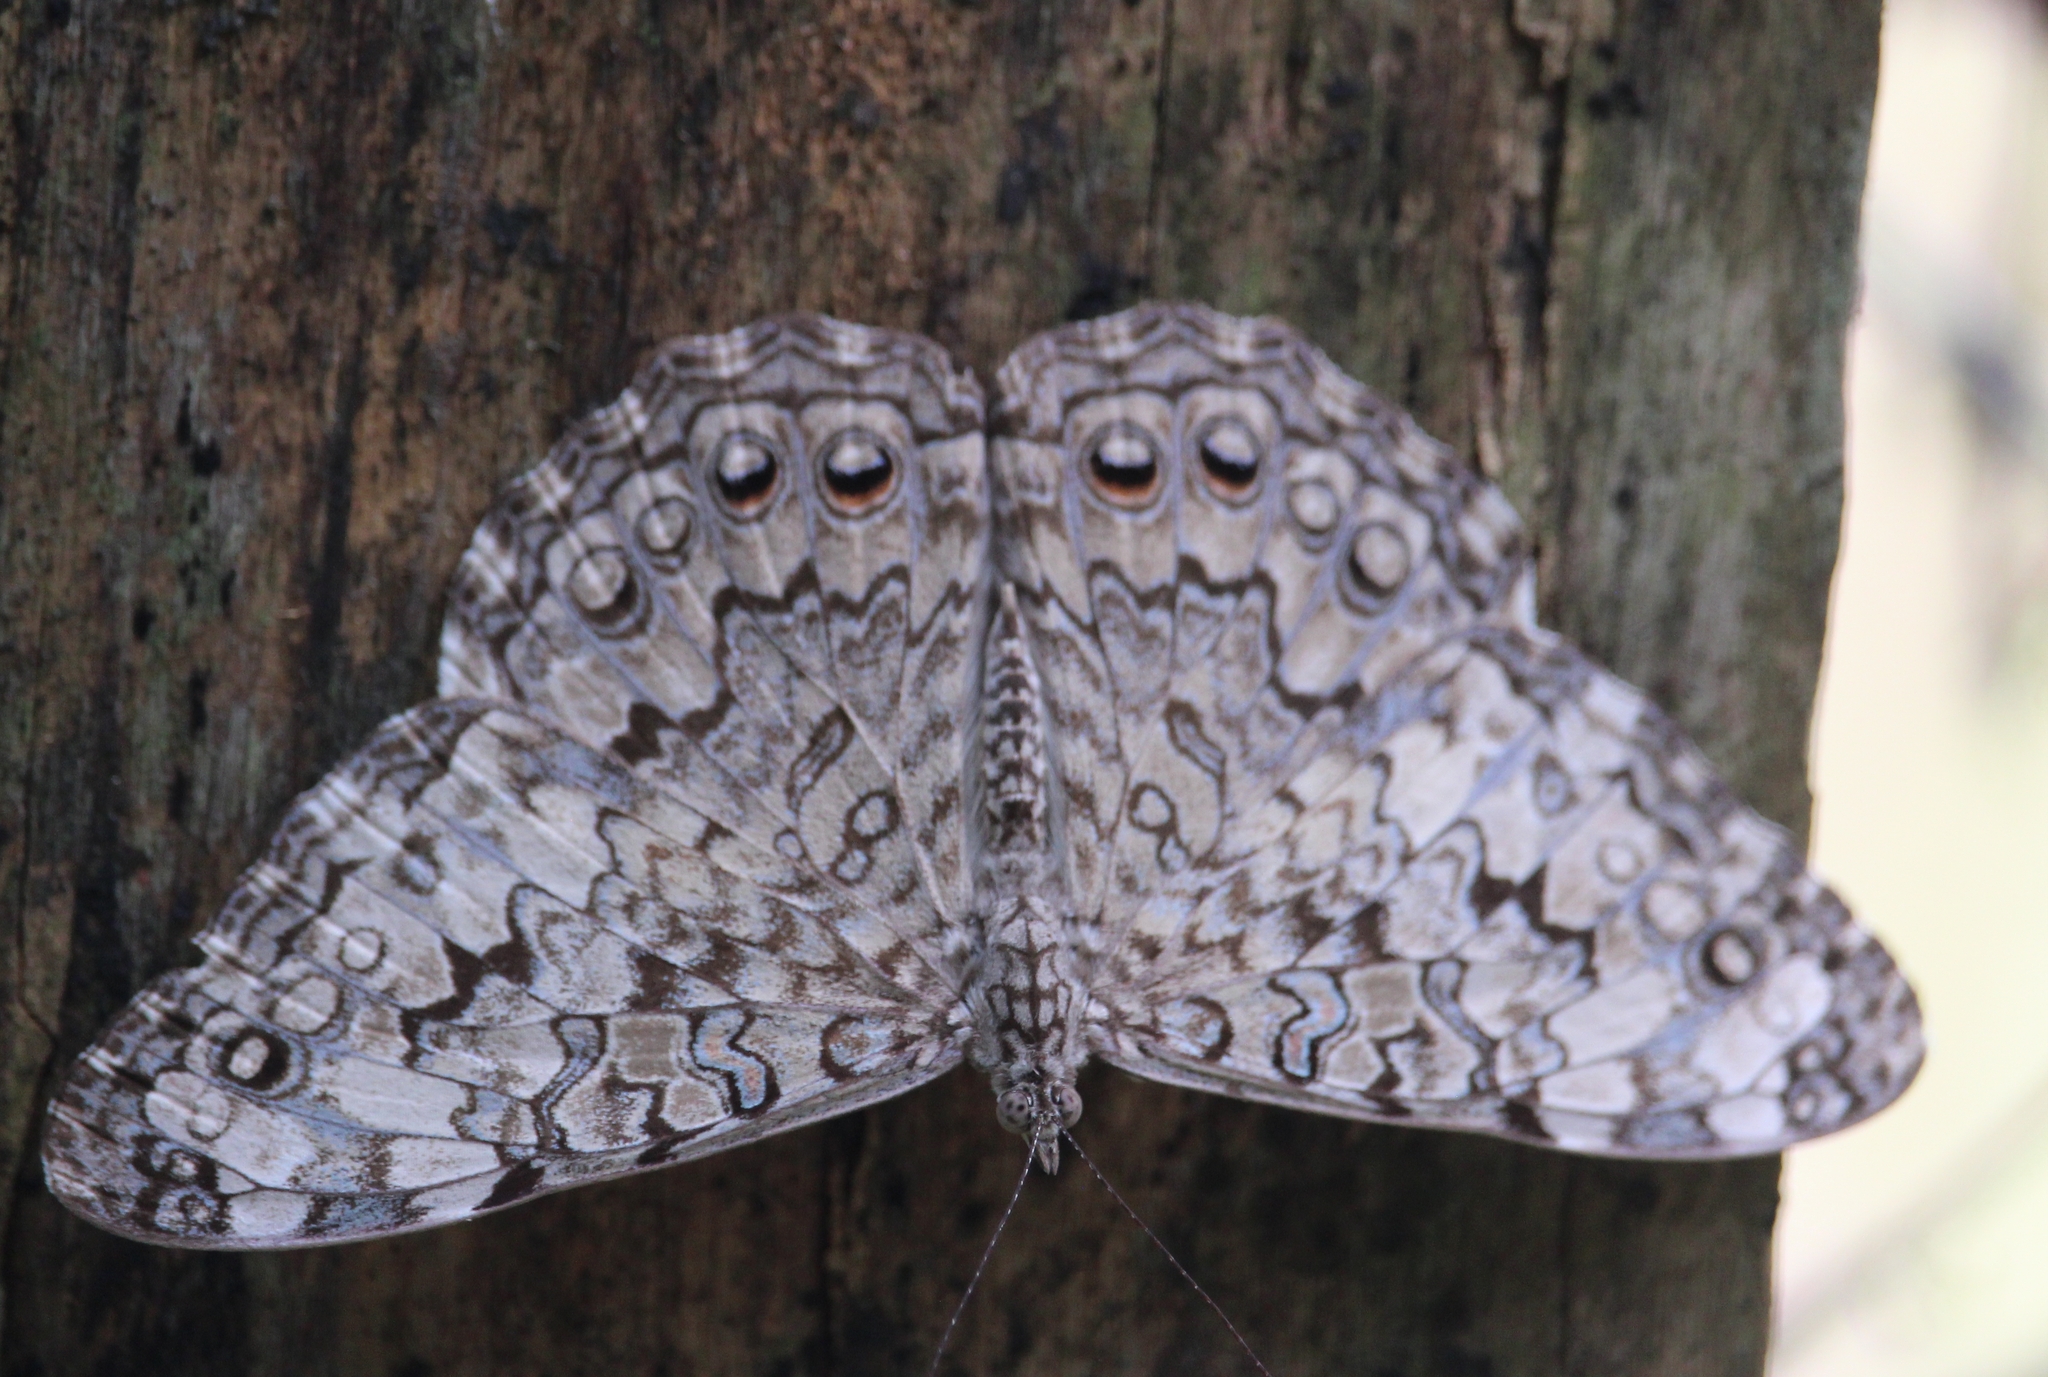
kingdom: Animalia
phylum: Arthropoda
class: Insecta
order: Lepidoptera
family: Nymphalidae
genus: Hamadryas
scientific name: Hamadryas februa
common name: Gray cracker
